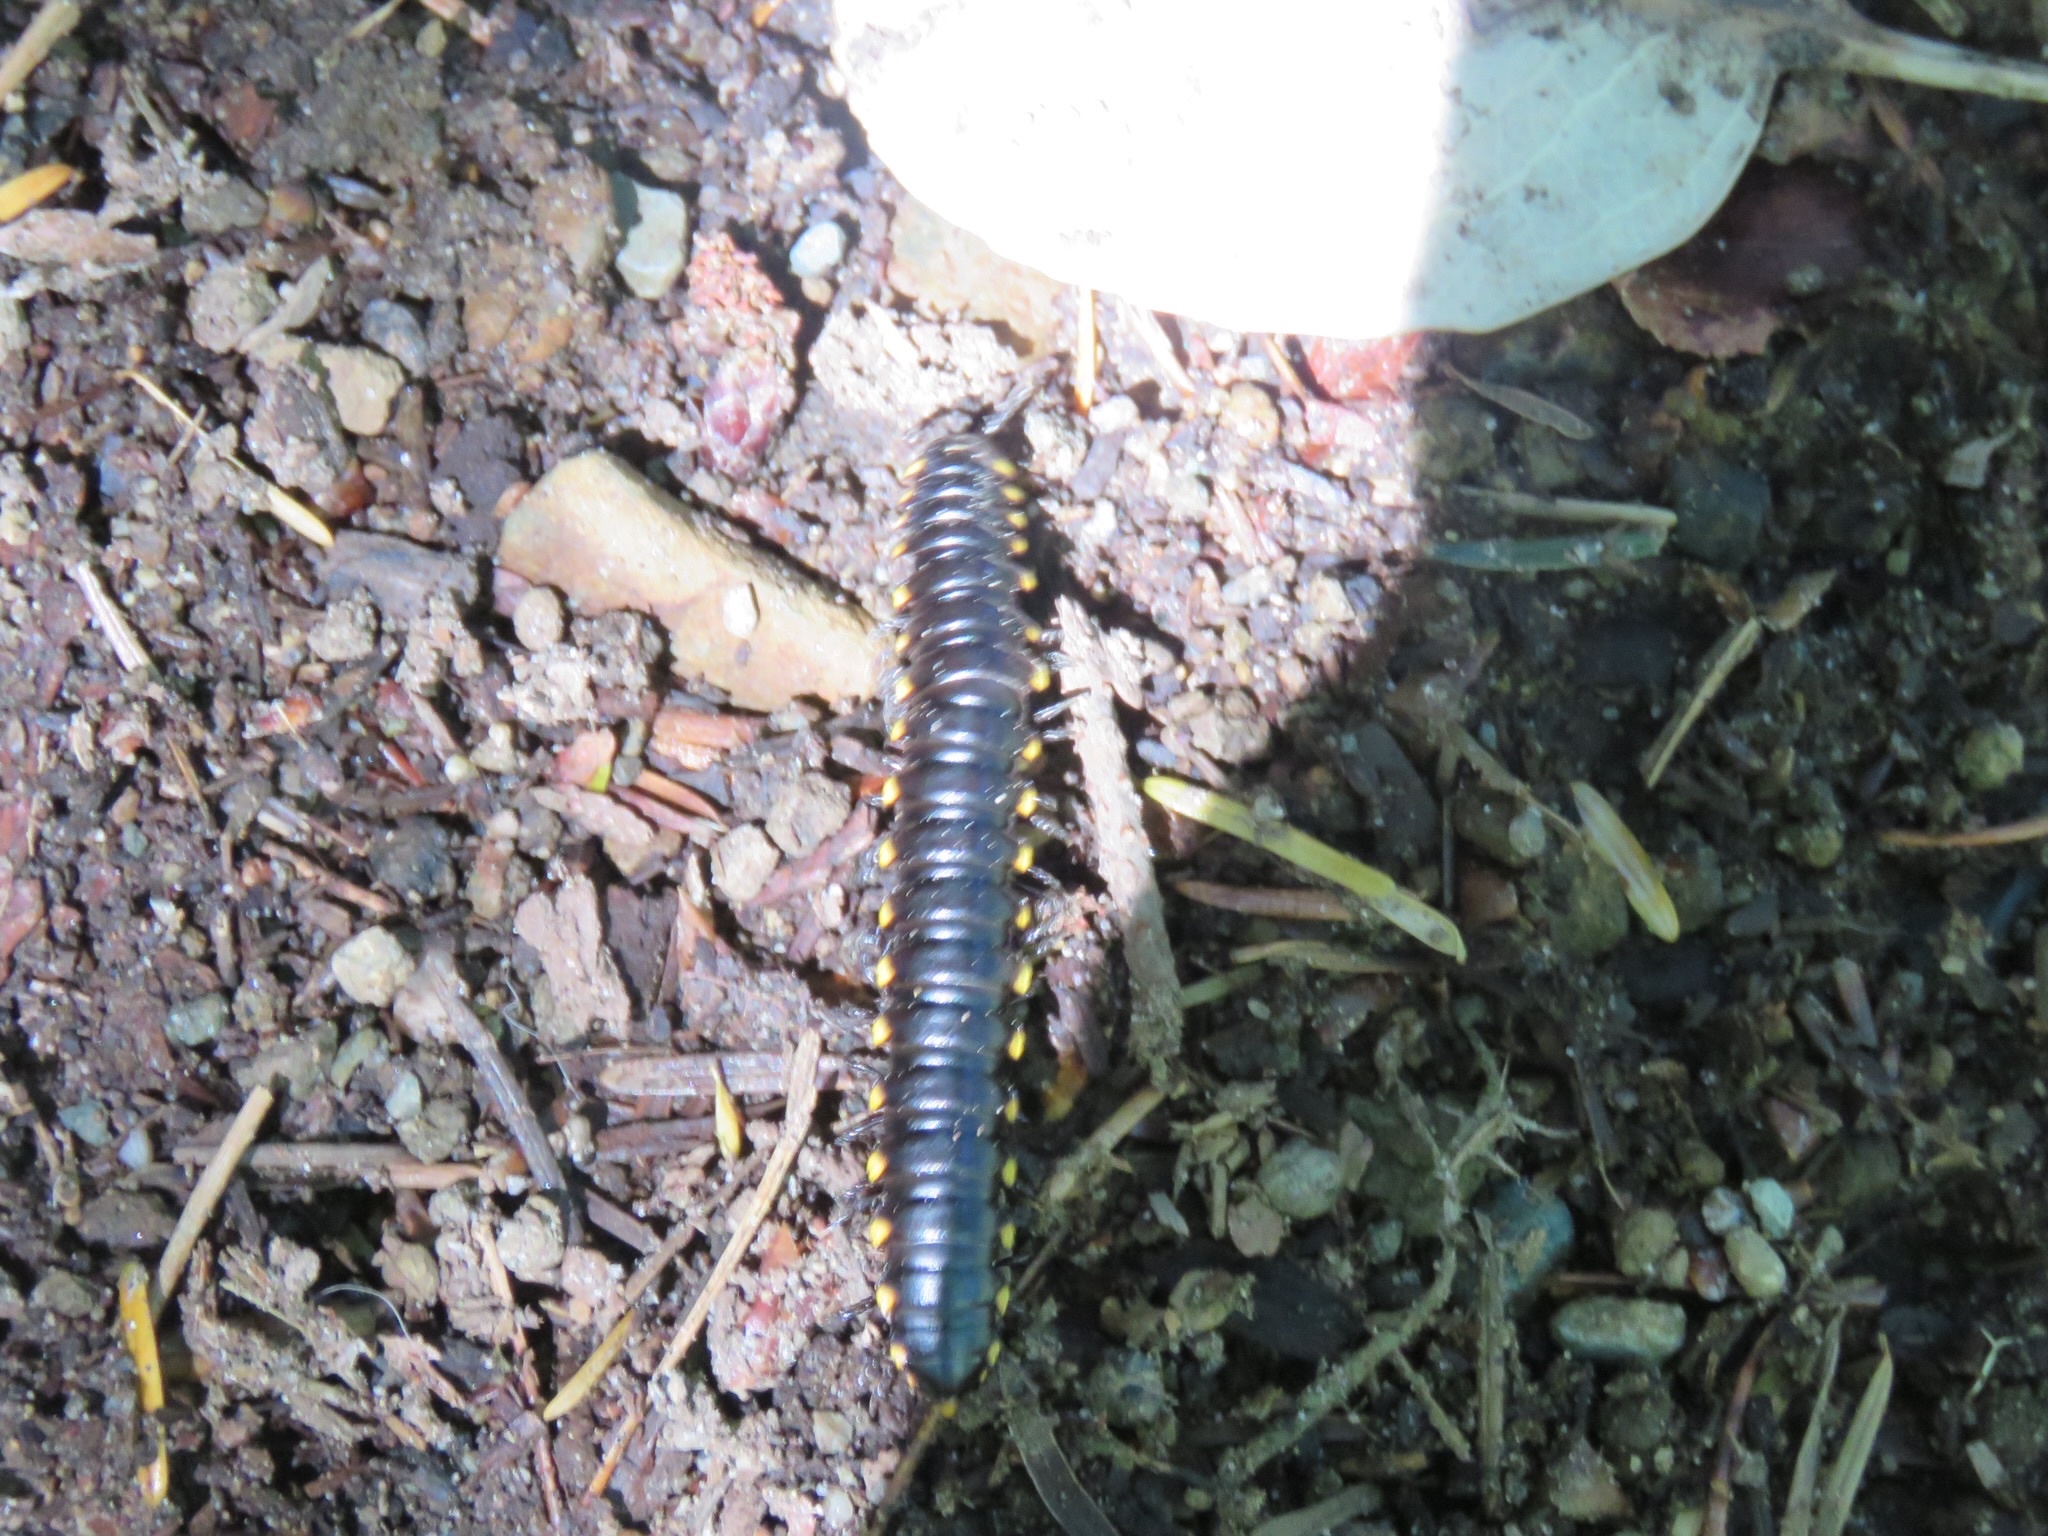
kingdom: Animalia
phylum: Arthropoda
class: Diplopoda
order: Polydesmida
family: Xystodesmidae
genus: Harpaphe
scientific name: Harpaphe haydeniana
